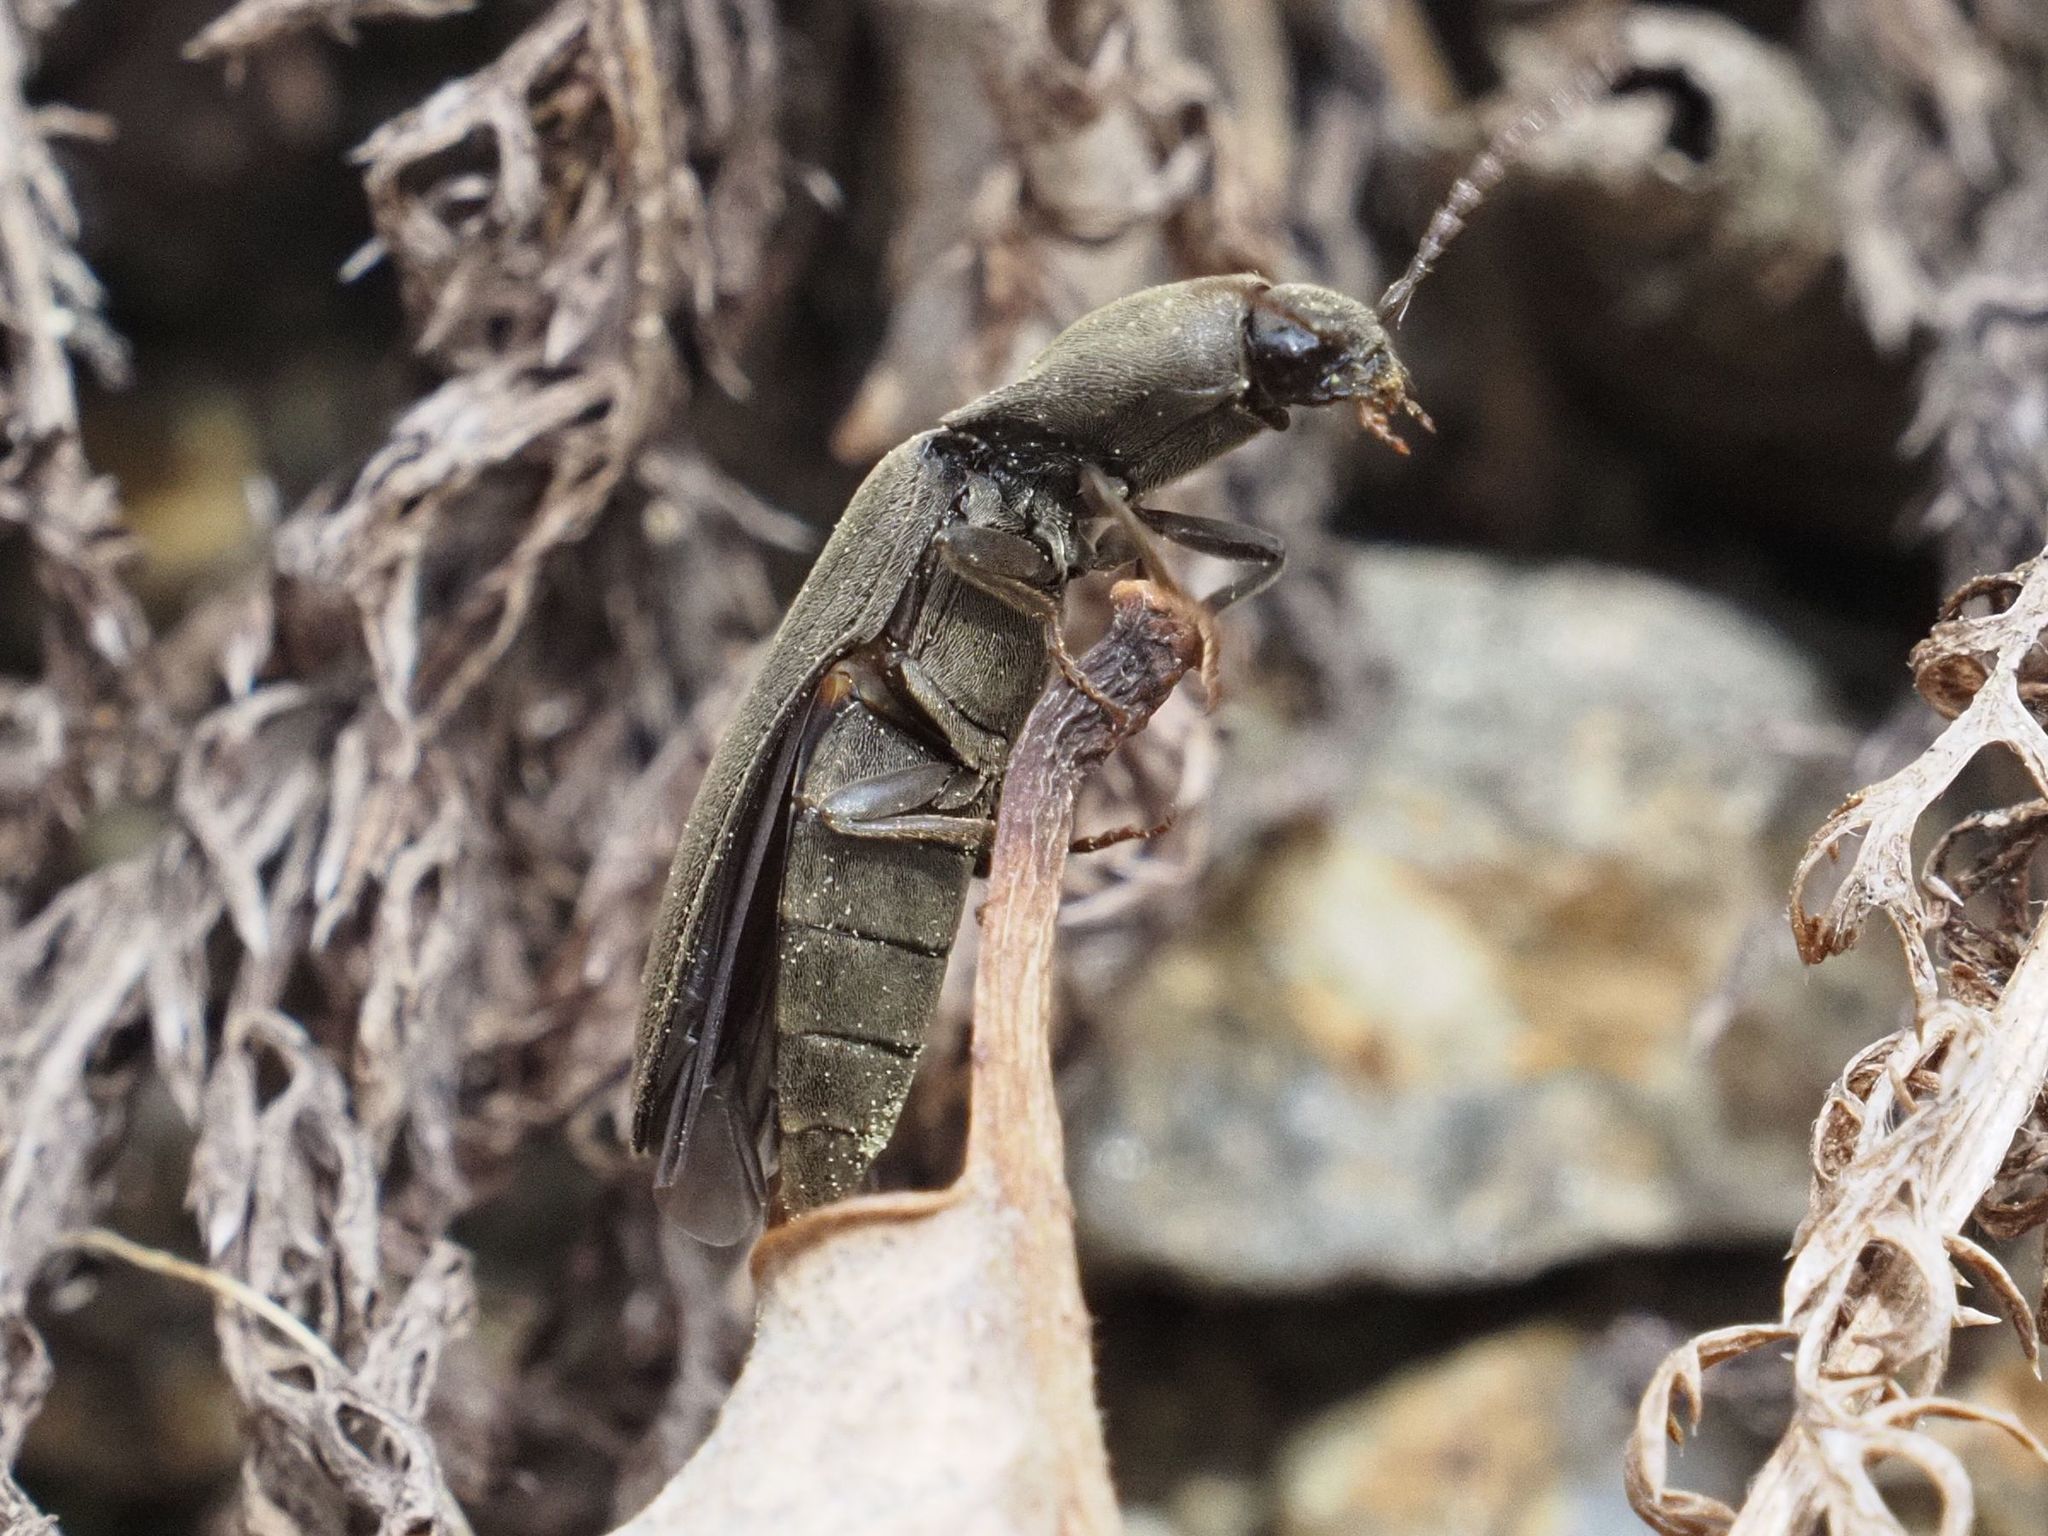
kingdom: Animalia
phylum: Arthropoda
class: Insecta
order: Coleoptera
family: Elateridae
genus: Agriotes
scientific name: Agriotes pilosellus
